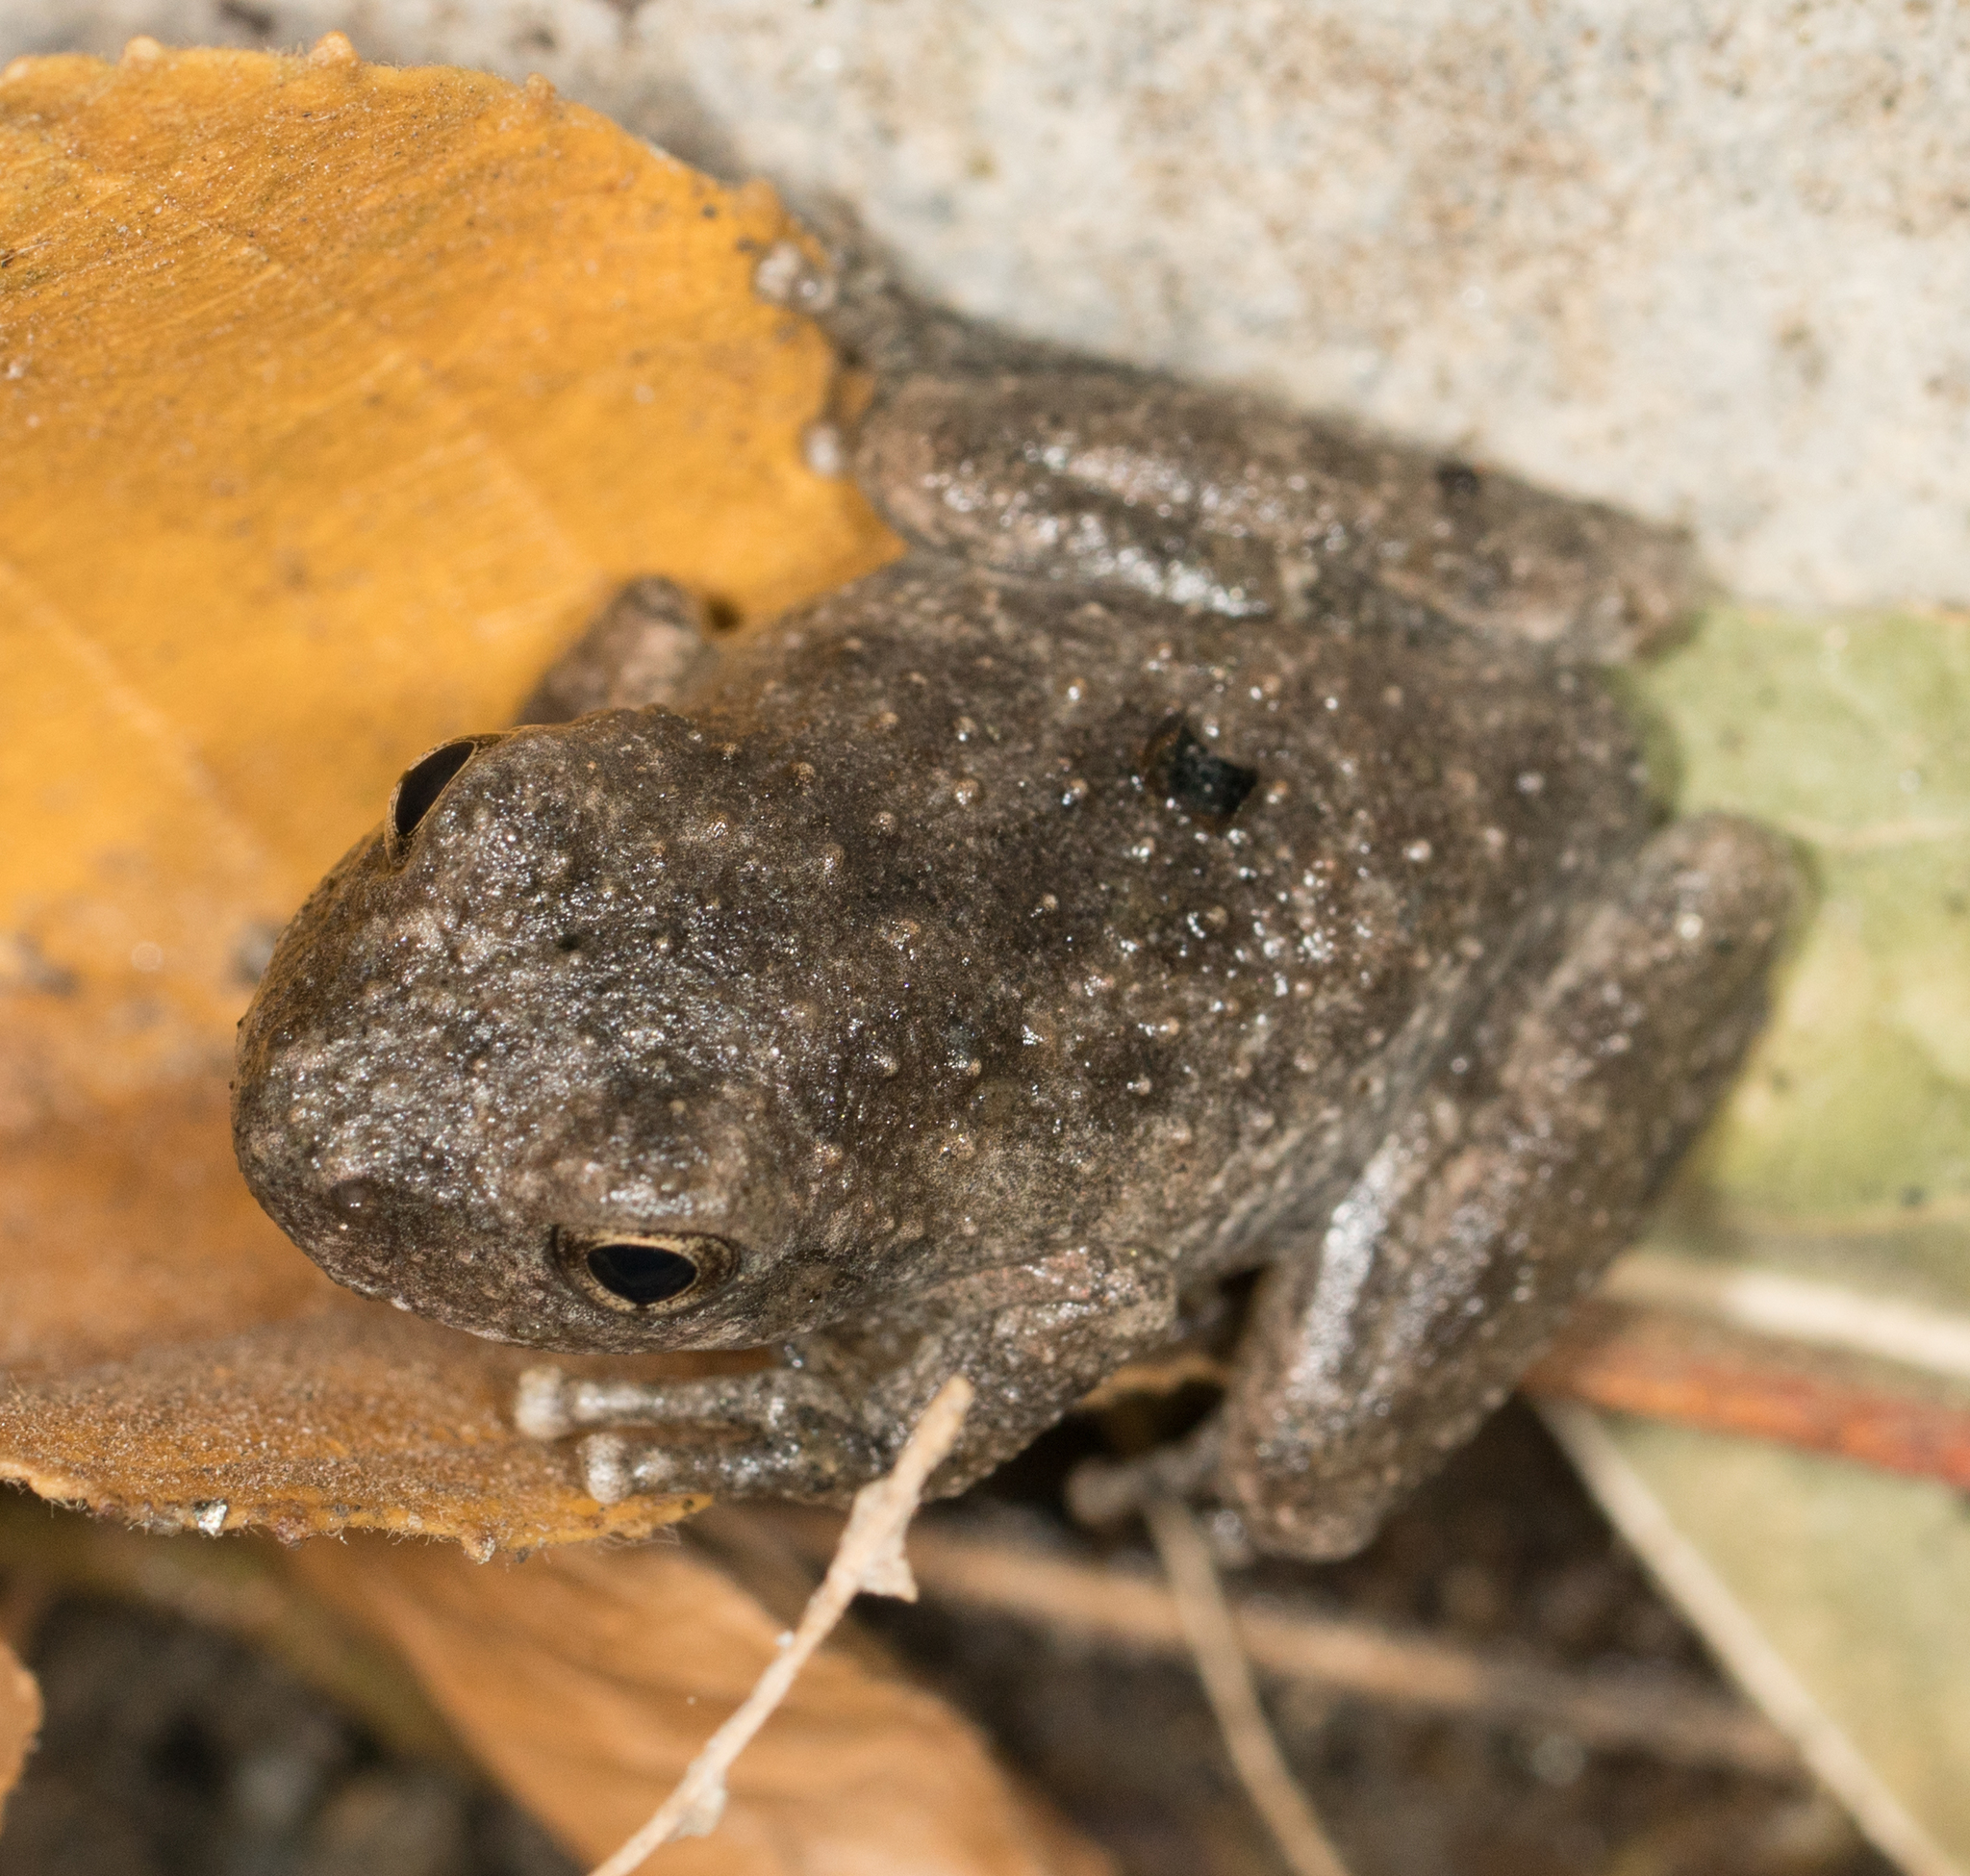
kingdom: Animalia
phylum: Chordata
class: Amphibia
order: Anura
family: Hylidae
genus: Pseudacris
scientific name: Pseudacris cadaverina
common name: California chorus frog
